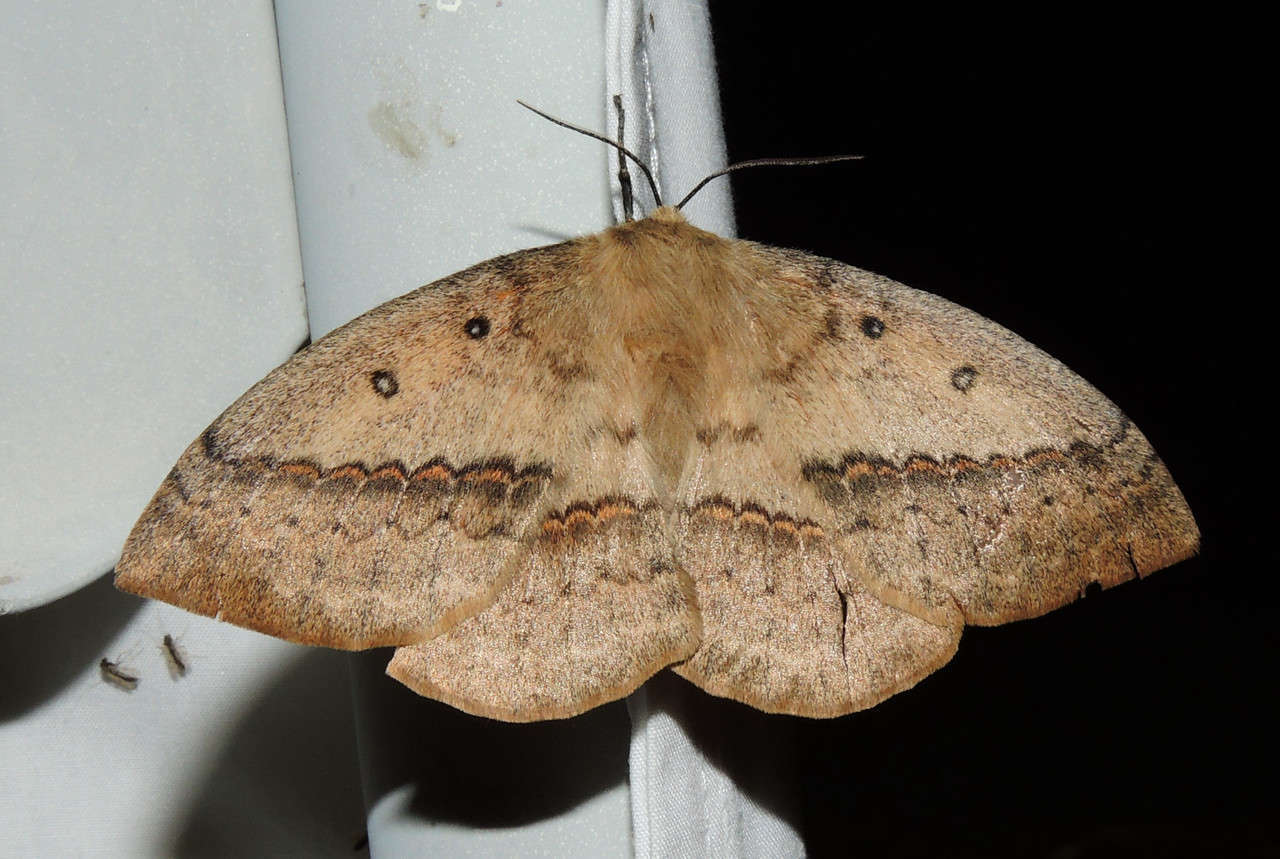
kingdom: Animalia
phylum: Arthropoda
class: Insecta
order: Lepidoptera
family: Anthelidae
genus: Anthela
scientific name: Anthela nicothoe
